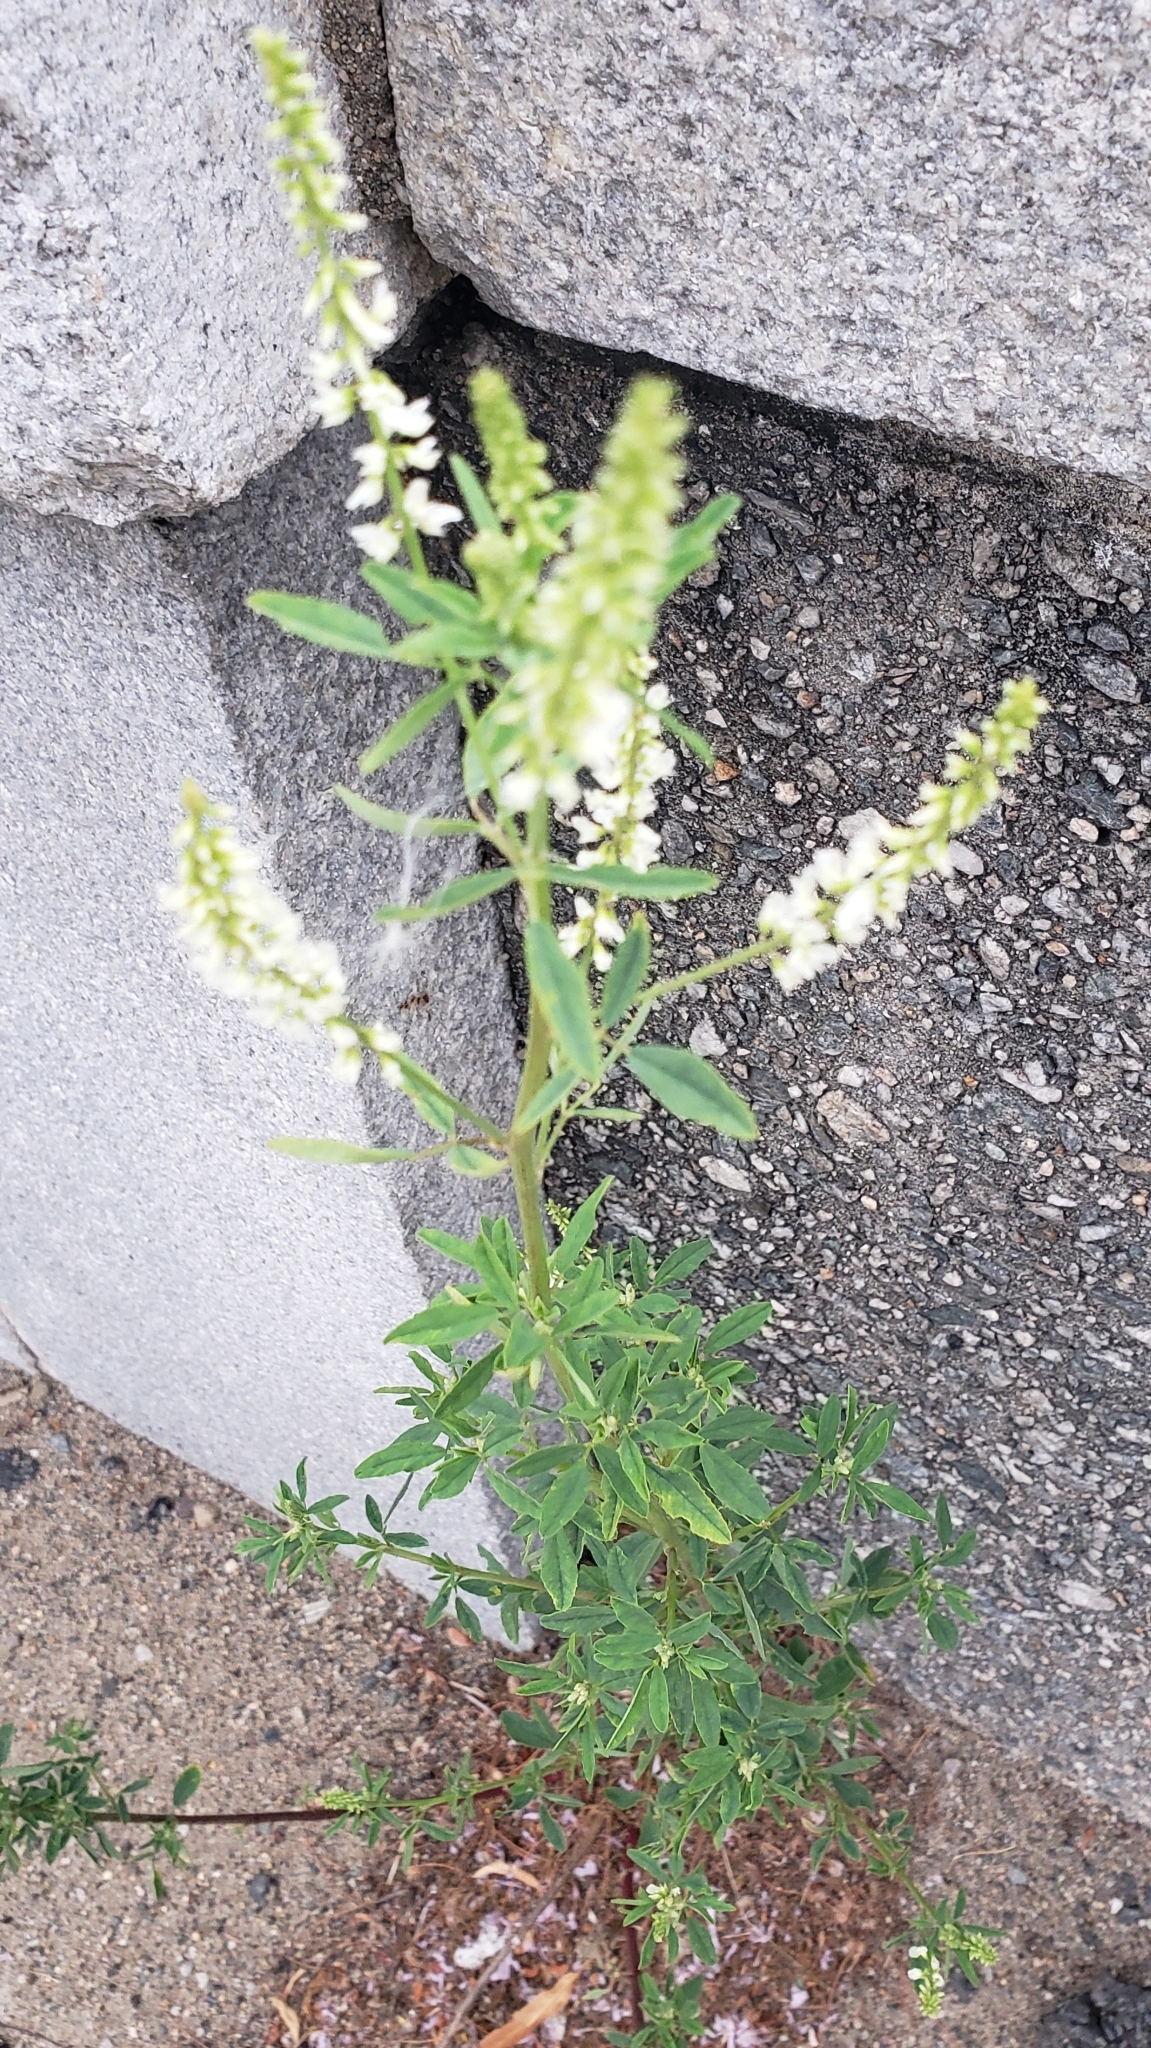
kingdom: Plantae
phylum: Tracheophyta
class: Magnoliopsida
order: Fabales
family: Fabaceae
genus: Melilotus
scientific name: Melilotus albus
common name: White melilot
